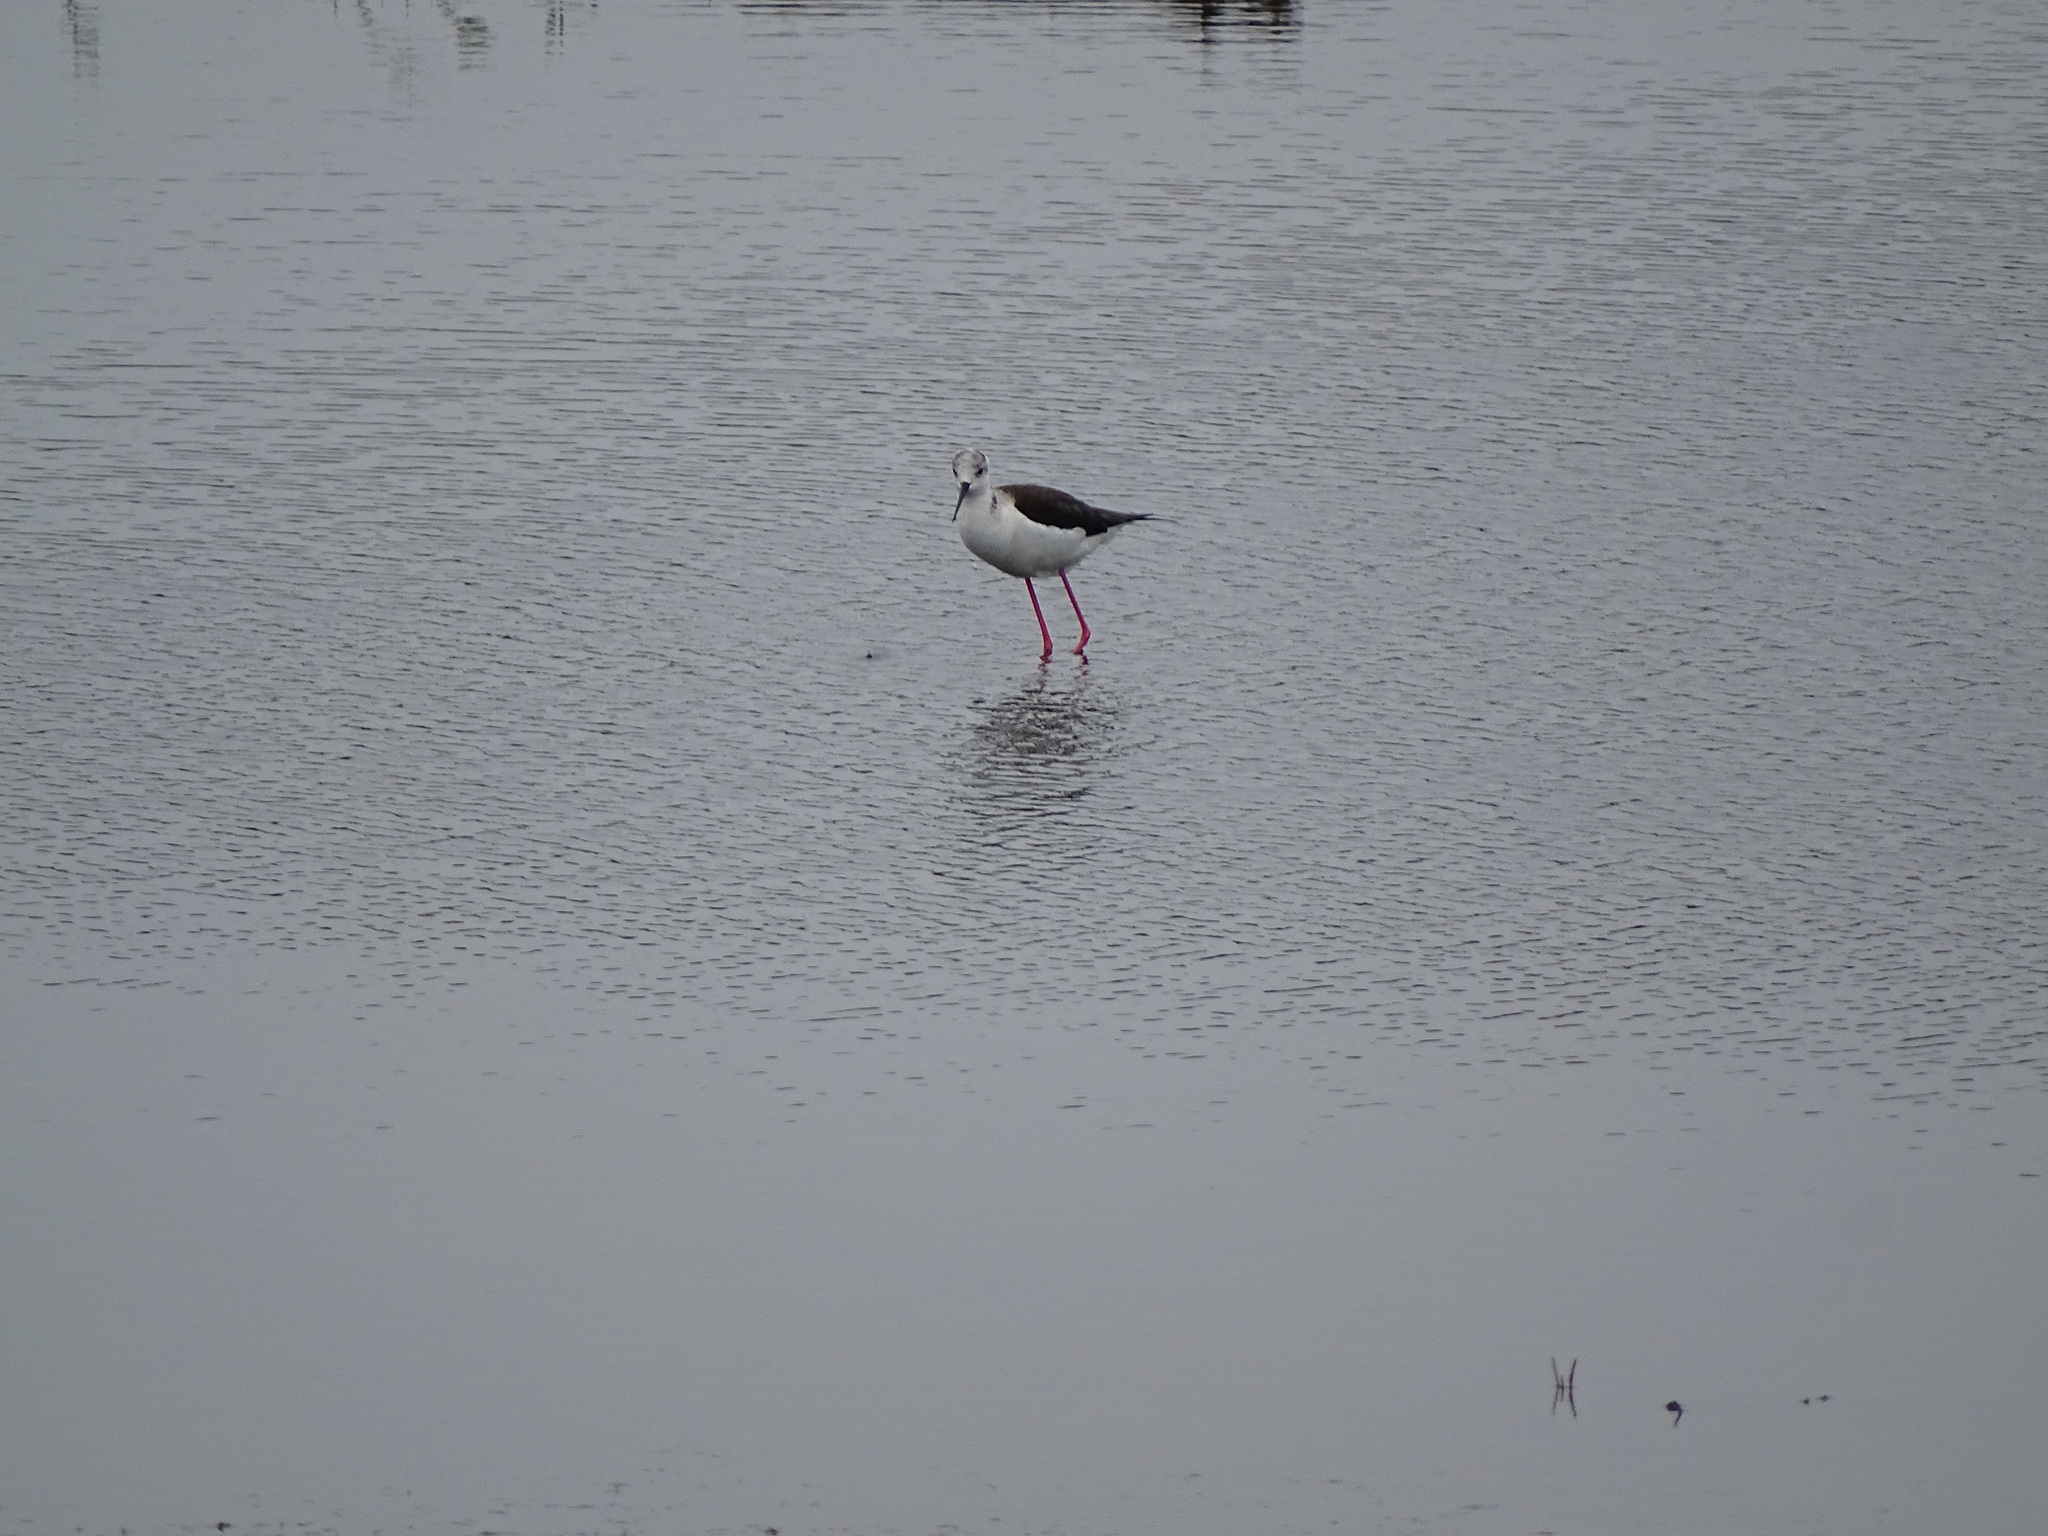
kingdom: Animalia
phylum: Chordata
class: Aves
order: Charadriiformes
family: Recurvirostridae
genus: Himantopus
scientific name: Himantopus himantopus
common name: Black-winged stilt
